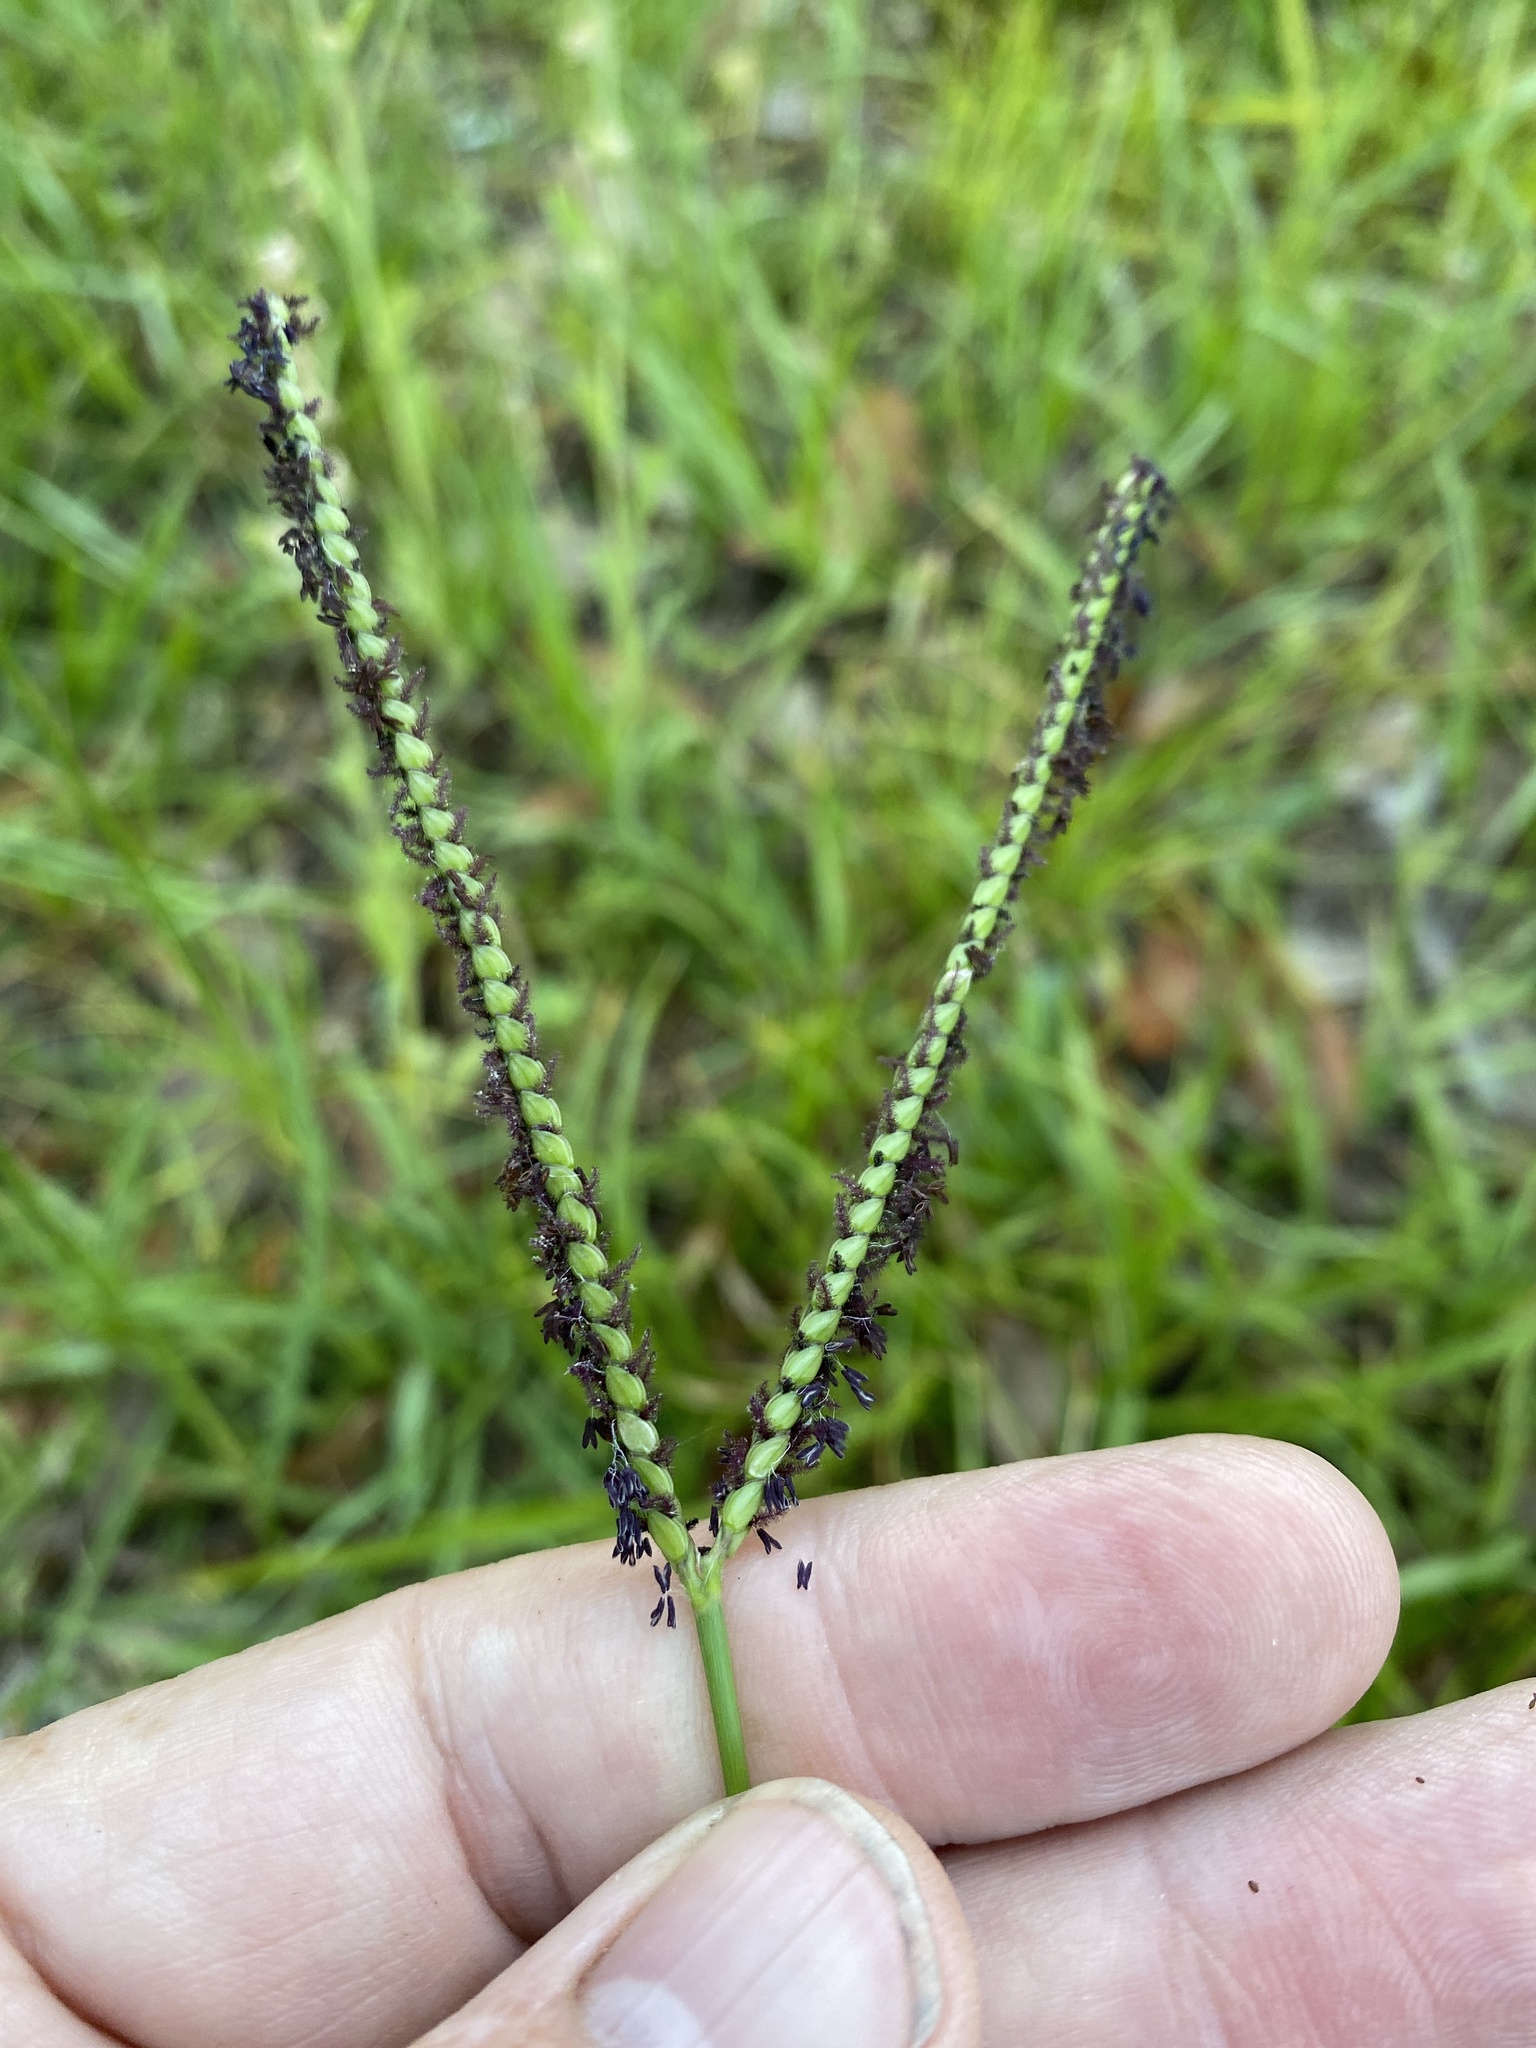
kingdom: Plantae
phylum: Tracheophyta
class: Liliopsida
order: Poales
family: Poaceae
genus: Paspalum
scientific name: Paspalum notatum
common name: Bahiagrass
